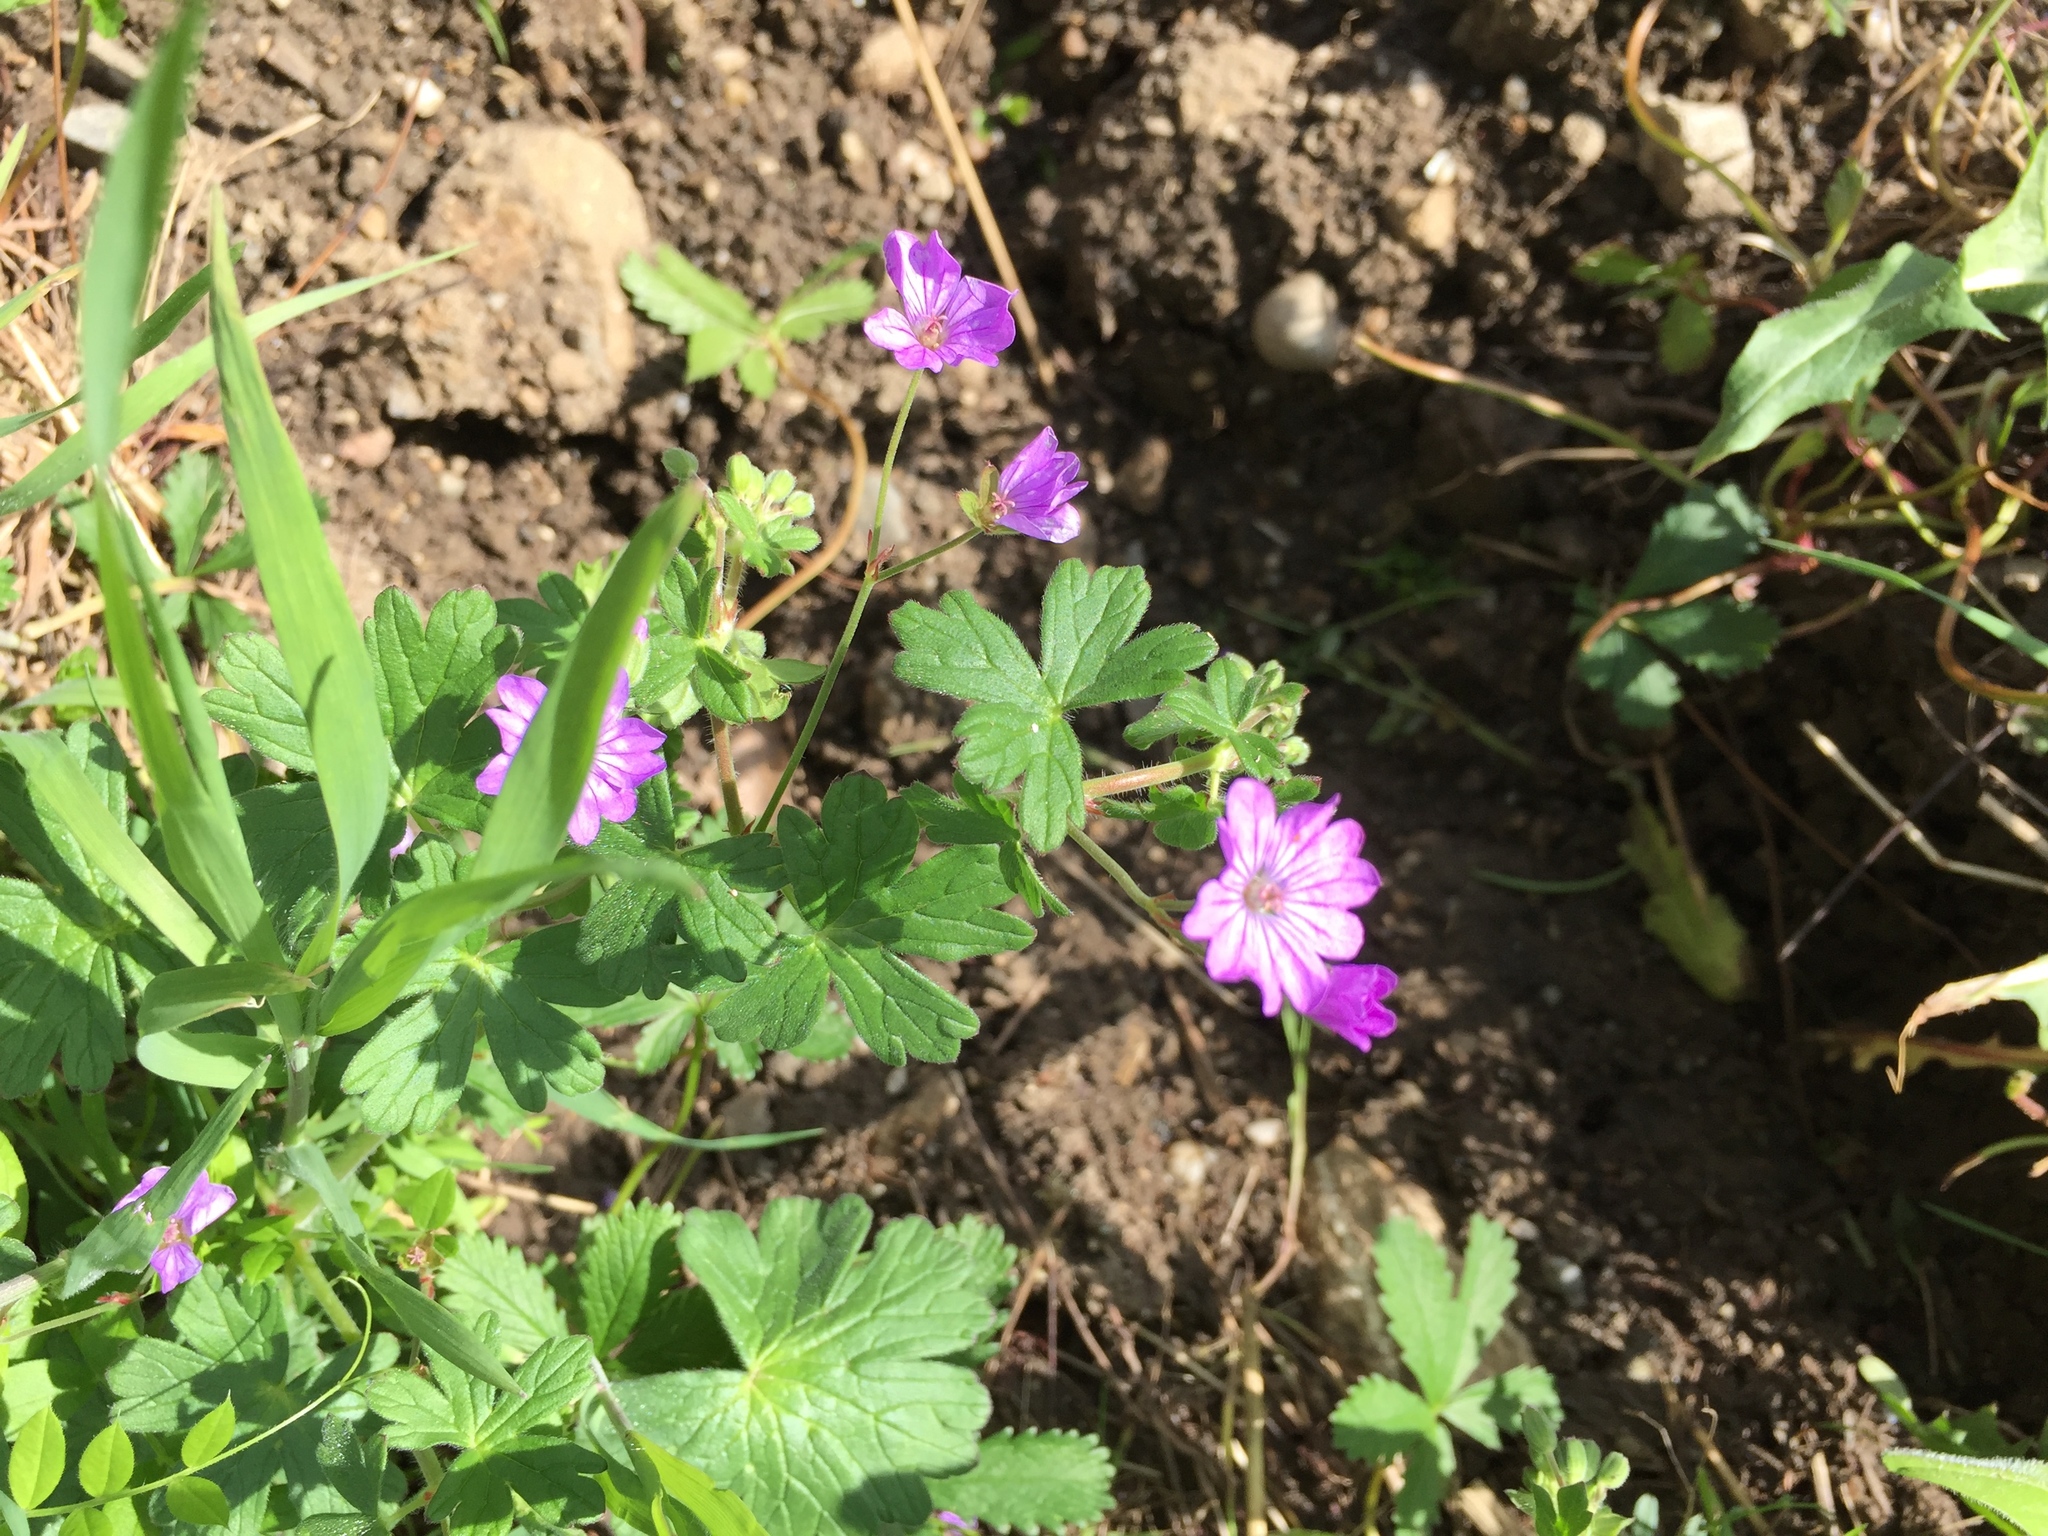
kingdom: Plantae
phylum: Tracheophyta
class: Magnoliopsida
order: Geraniales
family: Geraniaceae
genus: Geranium
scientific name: Geranium pyrenaicum
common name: Hedgerow crane's-bill
